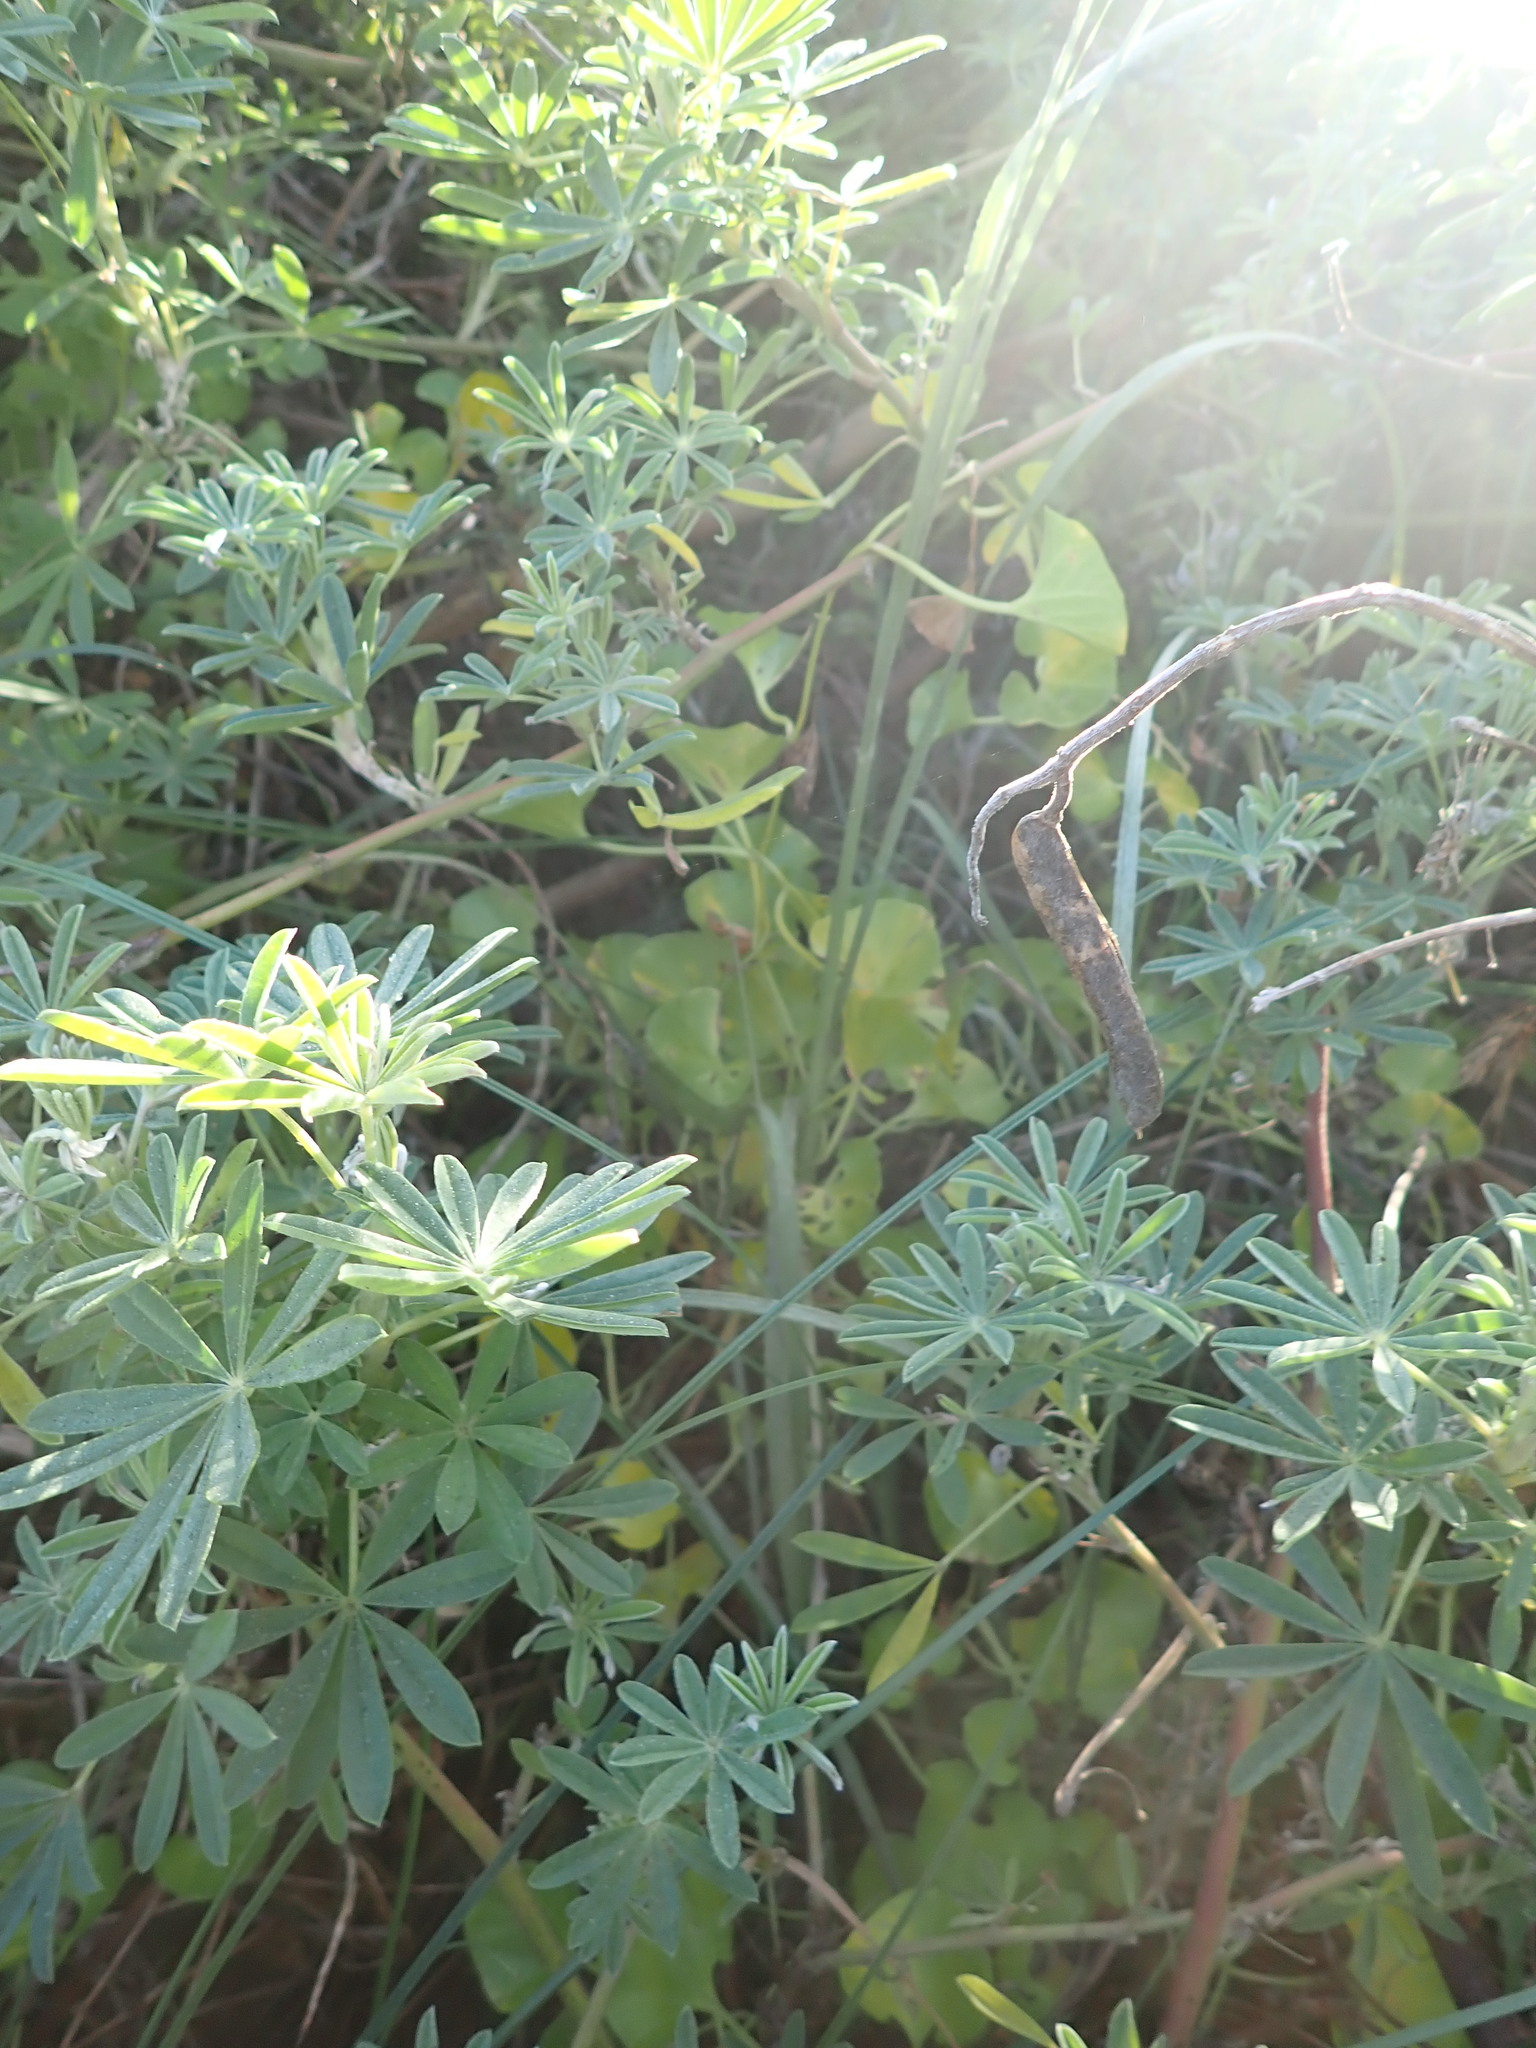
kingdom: Plantae
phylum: Tracheophyta
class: Magnoliopsida
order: Solanales
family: Convolvulaceae
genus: Calystegia
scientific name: Calystegia soldanella
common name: Sea bindweed
